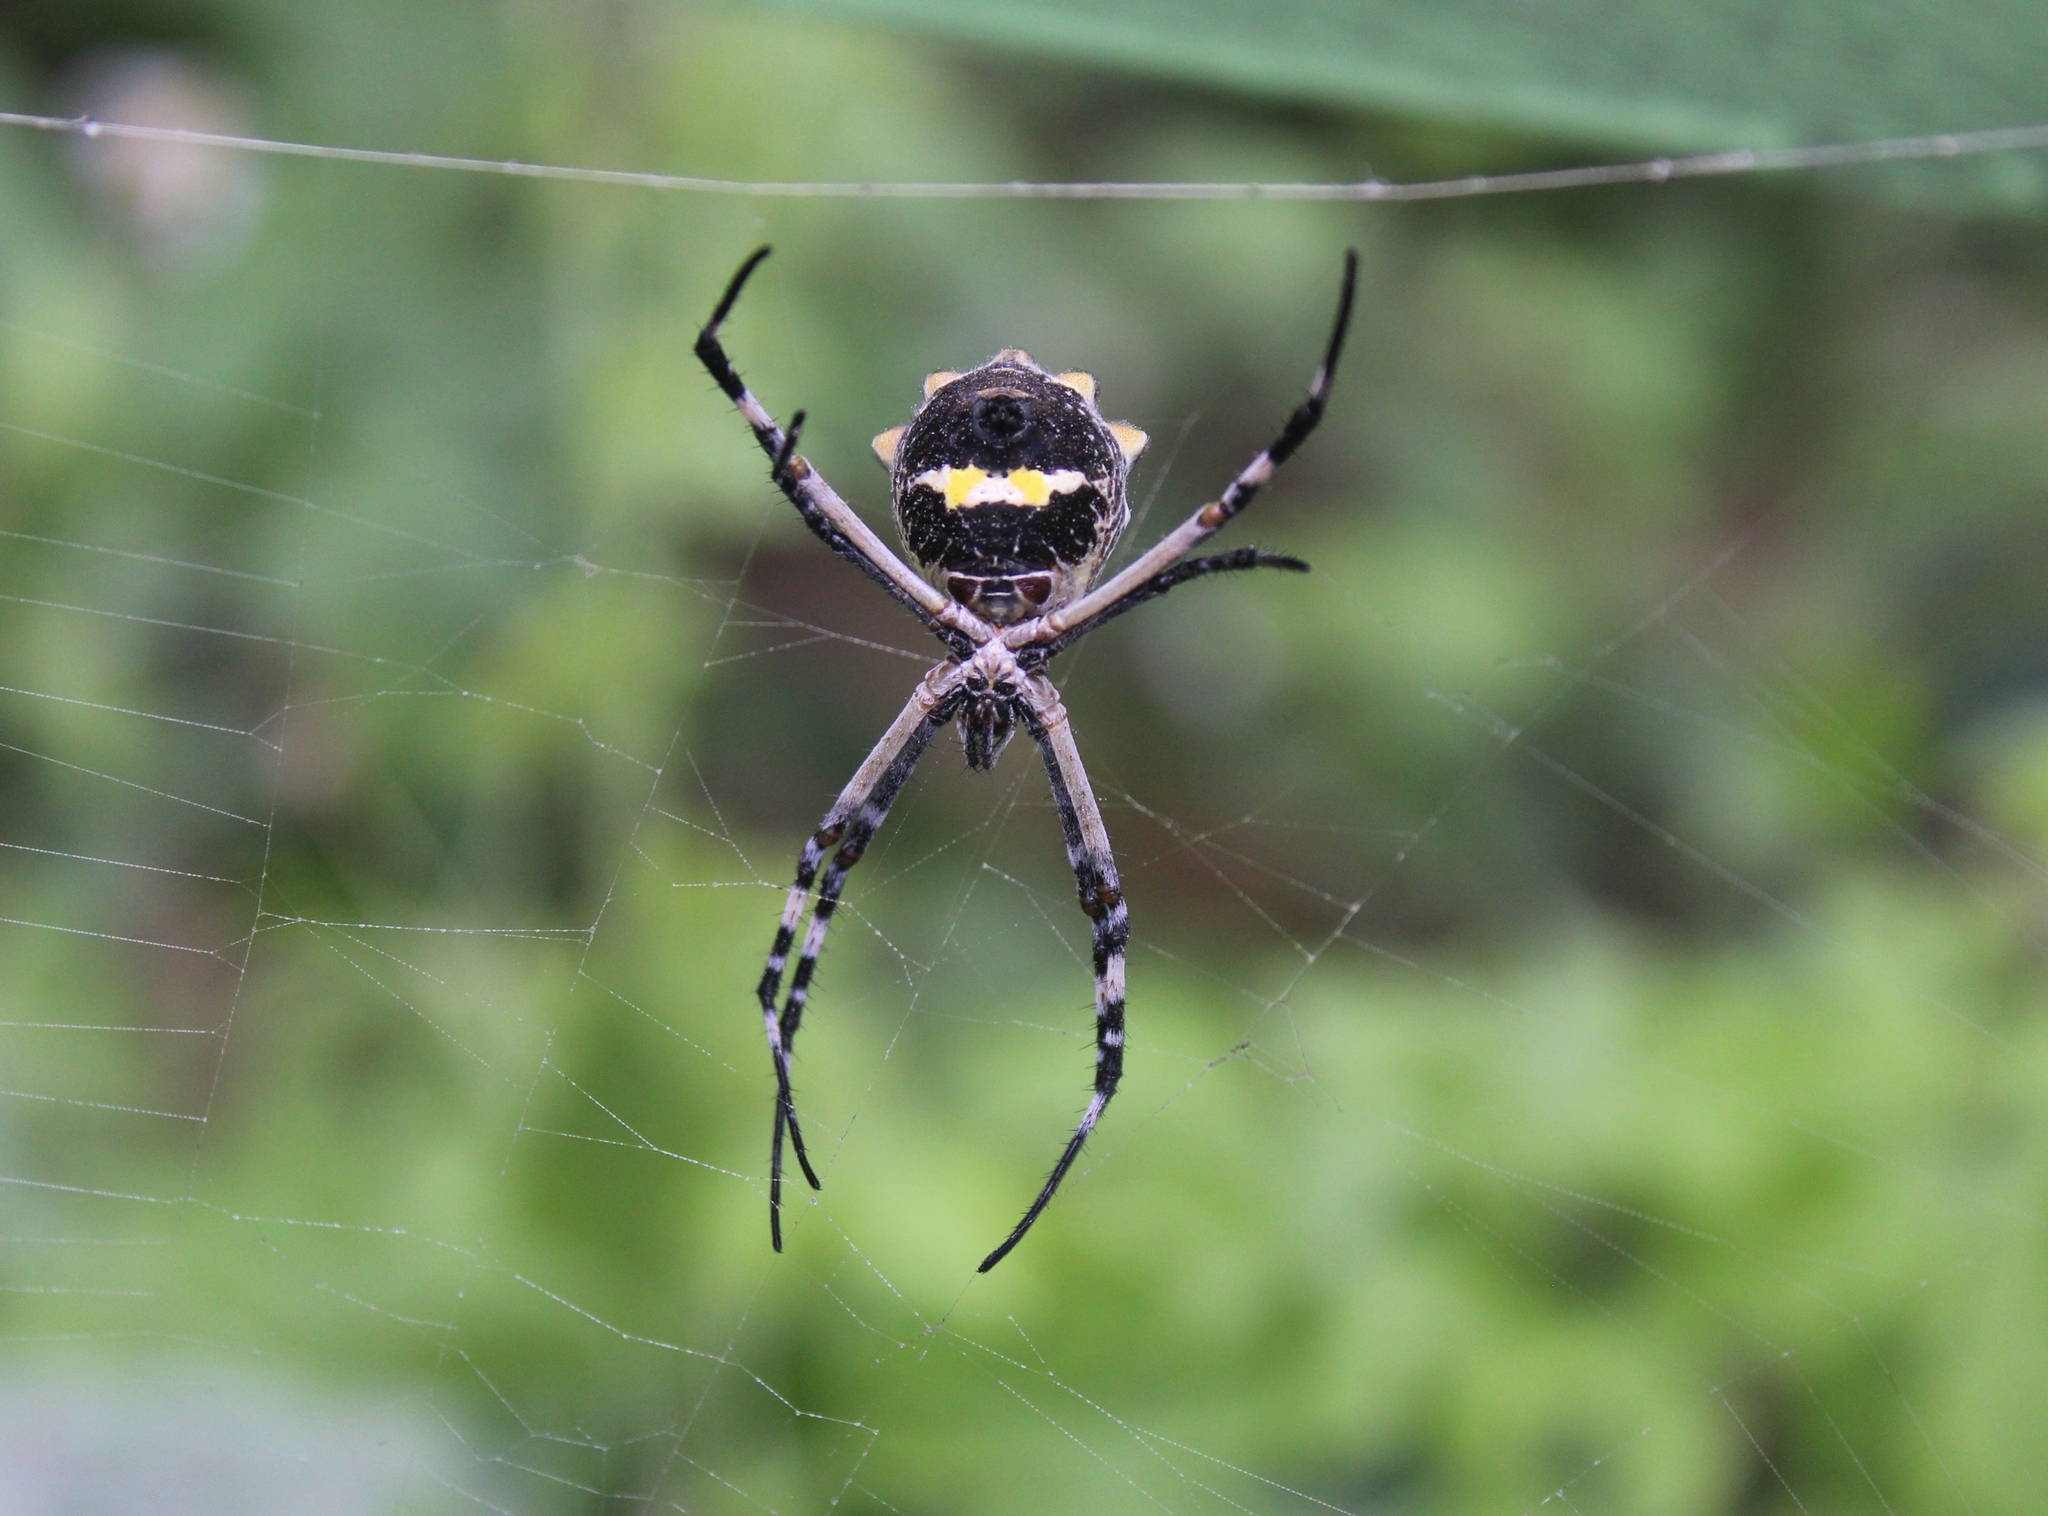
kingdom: Animalia
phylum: Arthropoda
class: Arachnida
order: Araneae
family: Araneidae
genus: Argiope
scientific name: Argiope argentata
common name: Orb weavers
